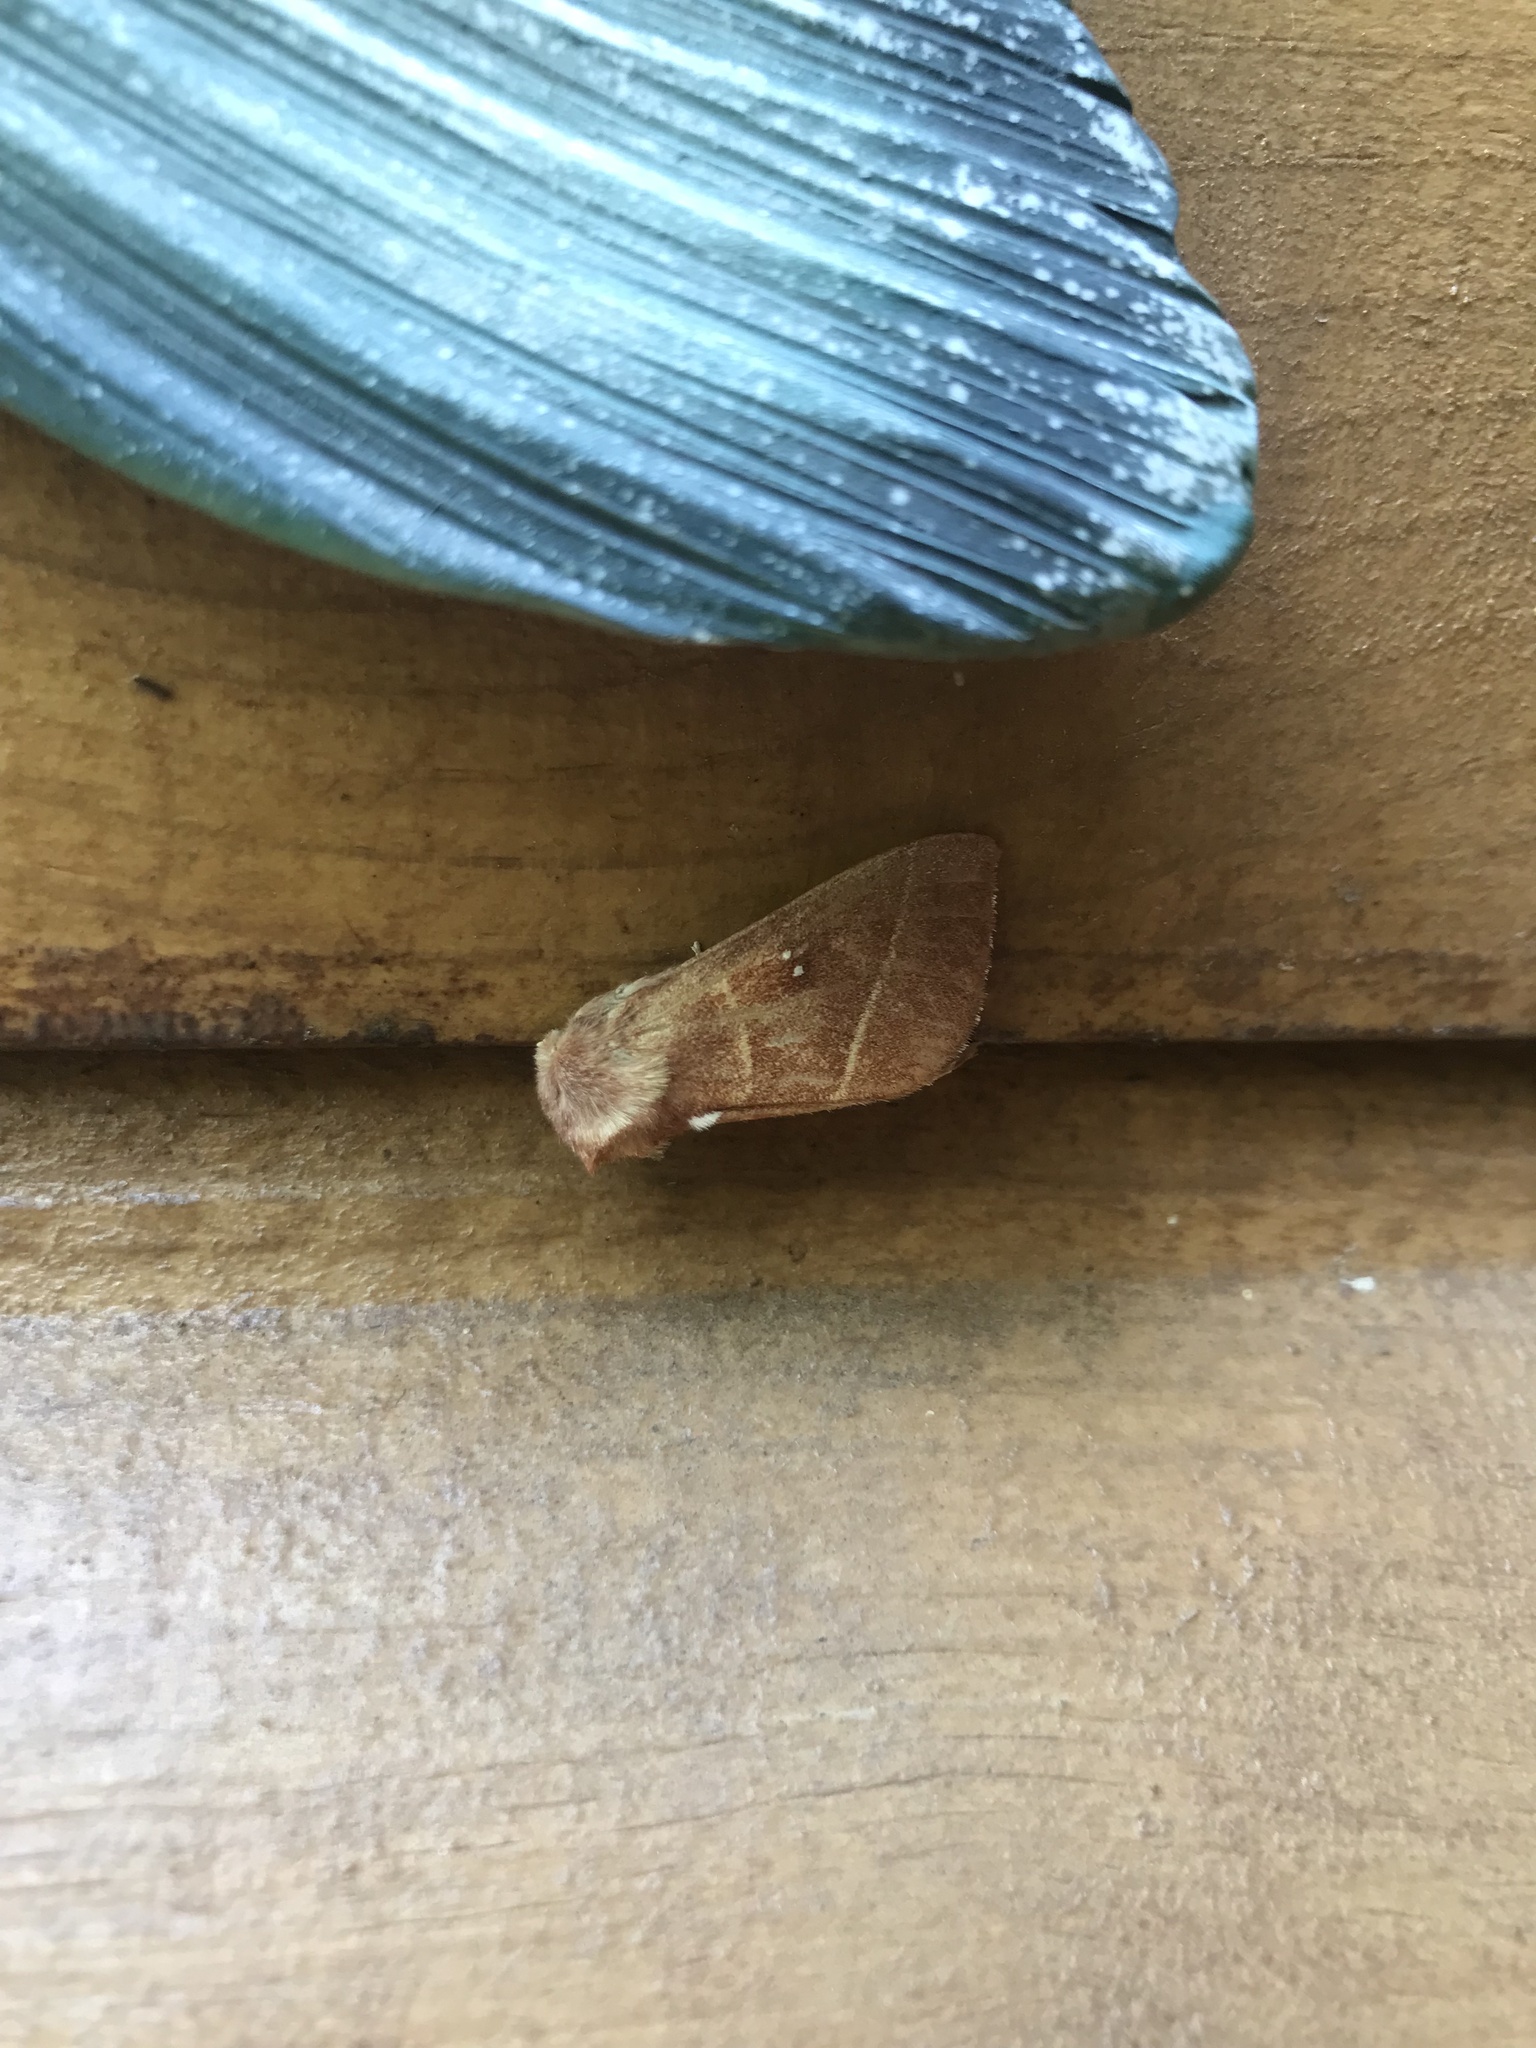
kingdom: Animalia
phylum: Arthropoda
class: Insecta
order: Lepidoptera
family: Notodontidae
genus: Nadata
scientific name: Nadata gibbosa
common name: White-dotted prominent
